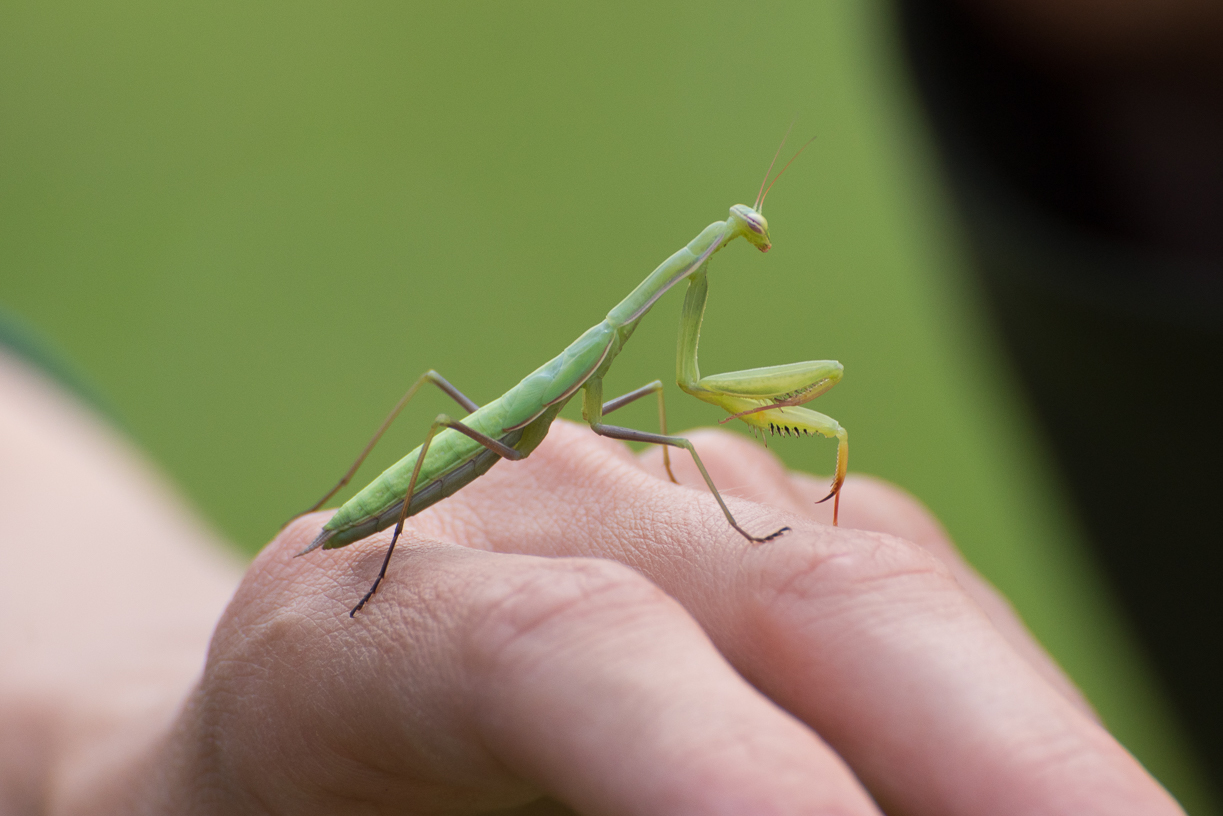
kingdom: Animalia
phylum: Arthropoda
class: Insecta
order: Mantodea
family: Mantidae
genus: Mantis
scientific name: Mantis religiosa
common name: Praying mantis
